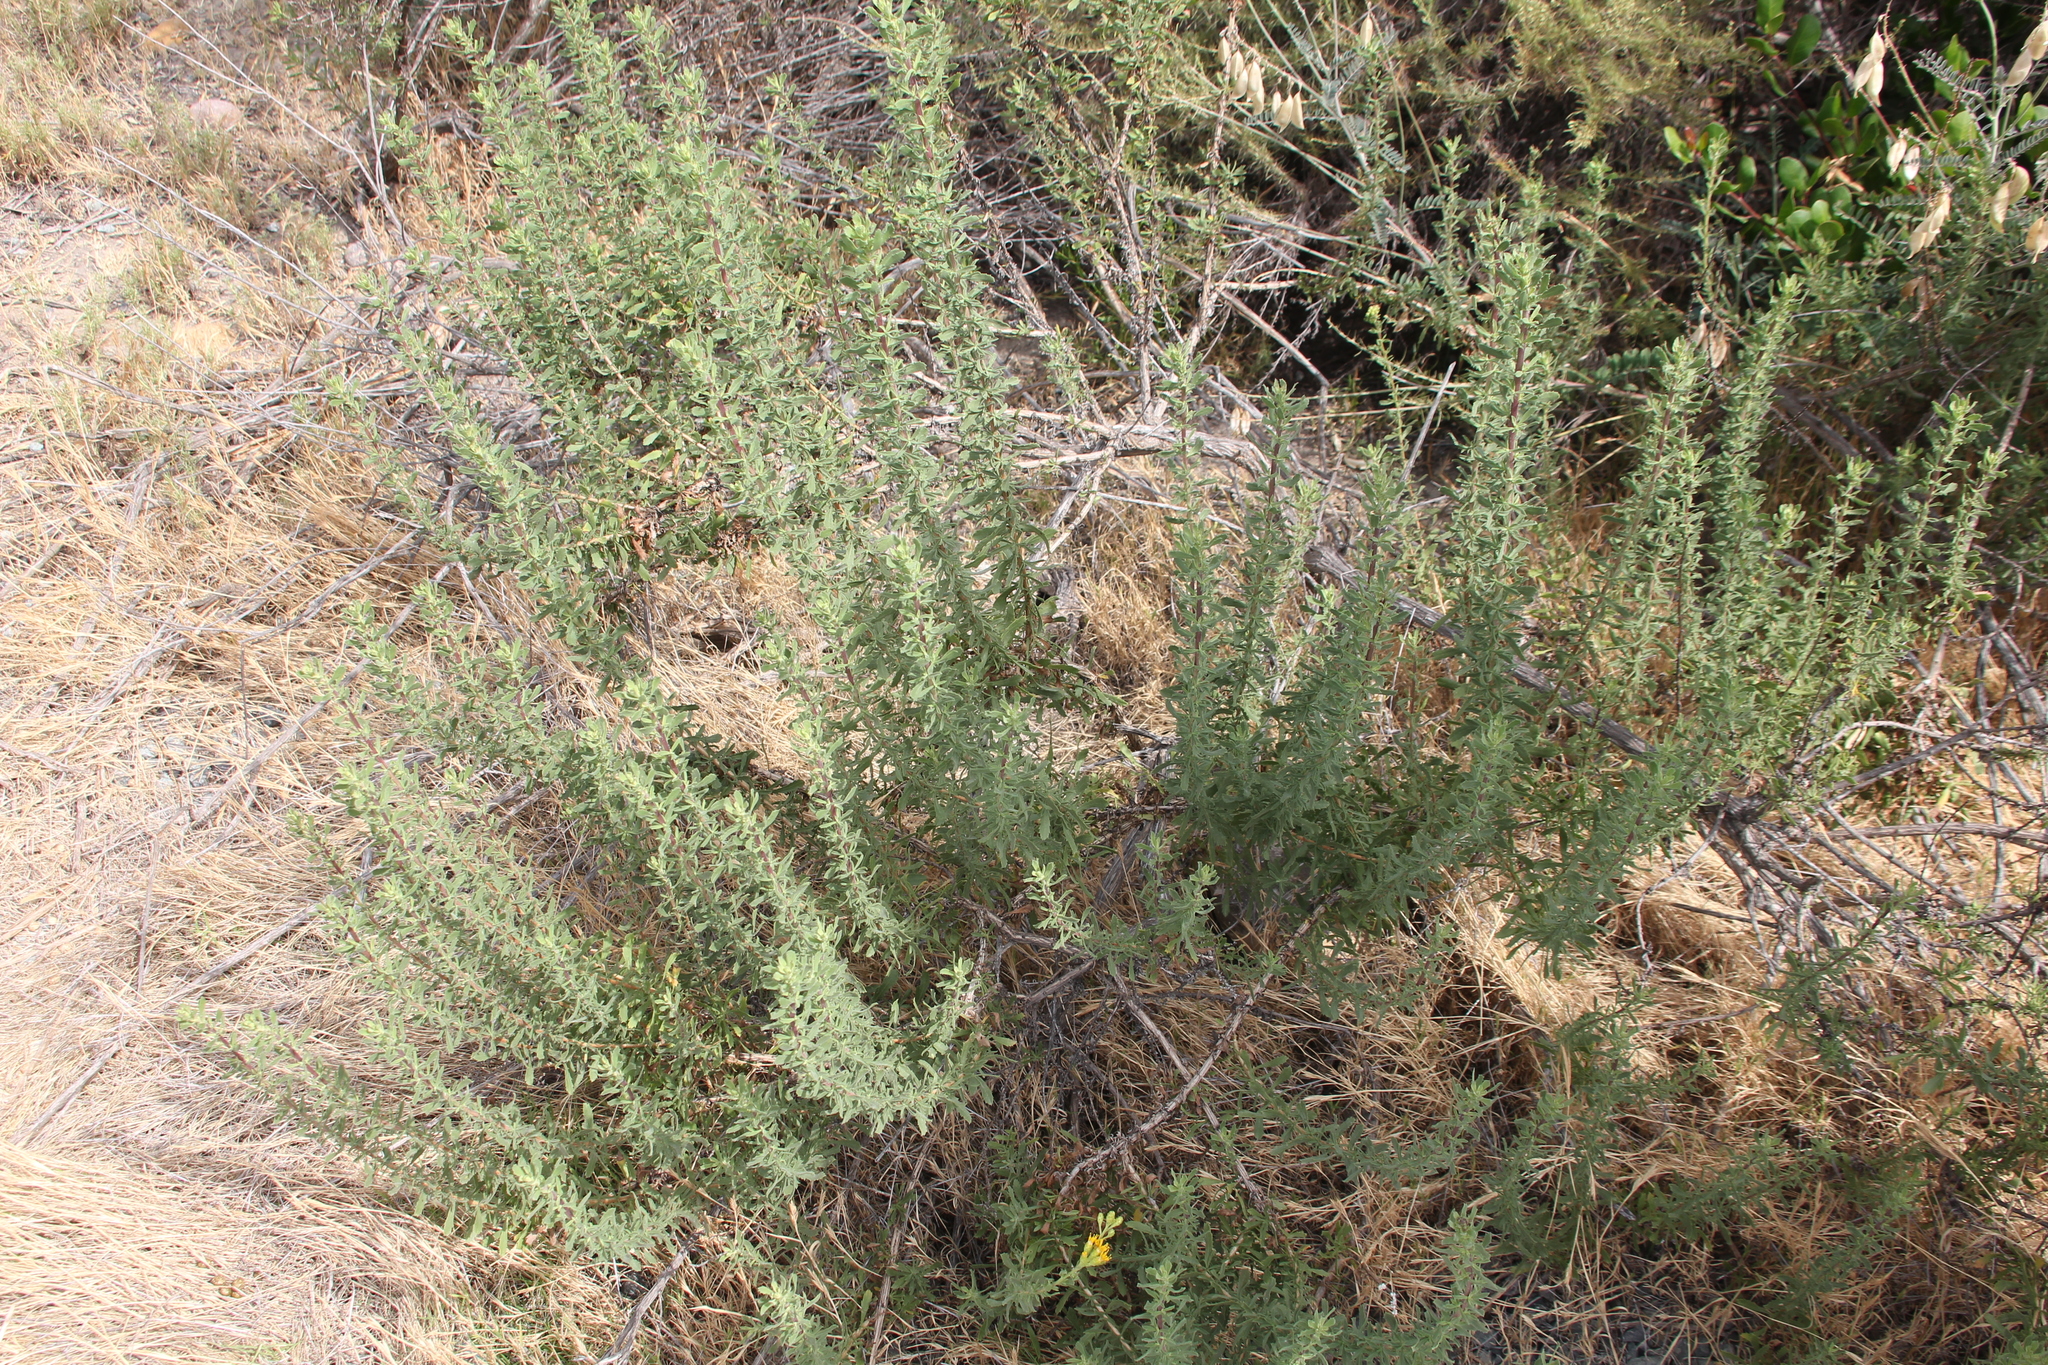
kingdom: Plantae
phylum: Tracheophyta
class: Magnoliopsida
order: Asterales
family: Asteraceae
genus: Isocoma
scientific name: Isocoma menziesii
